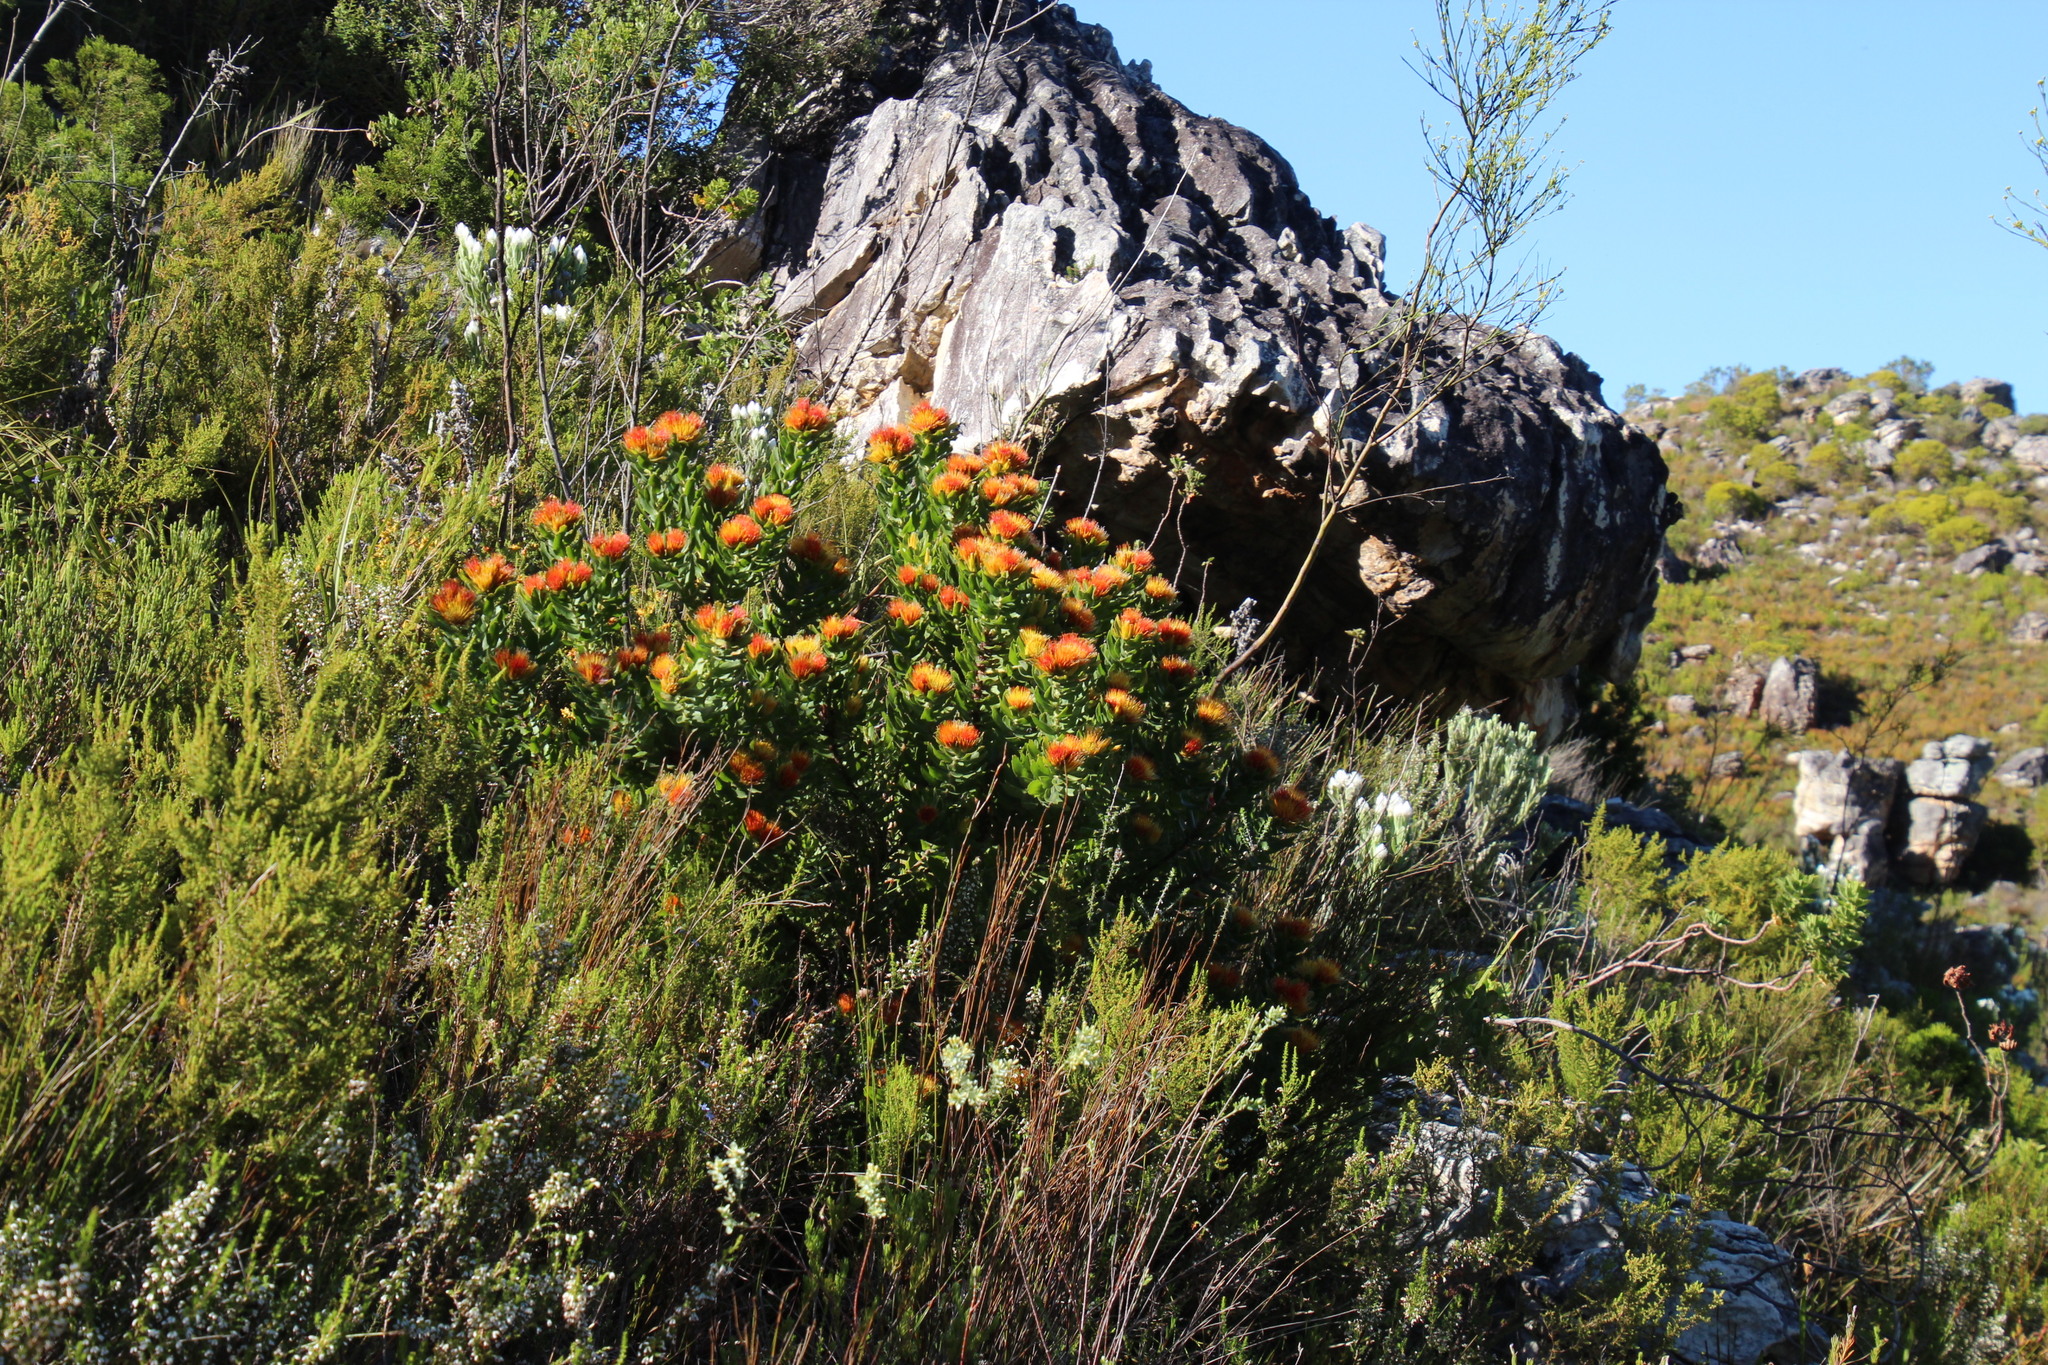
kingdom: Plantae
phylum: Tracheophyta
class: Magnoliopsida
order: Proteales
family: Proteaceae
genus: Leucospermum
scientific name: Leucospermum oleifolium
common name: Matches
